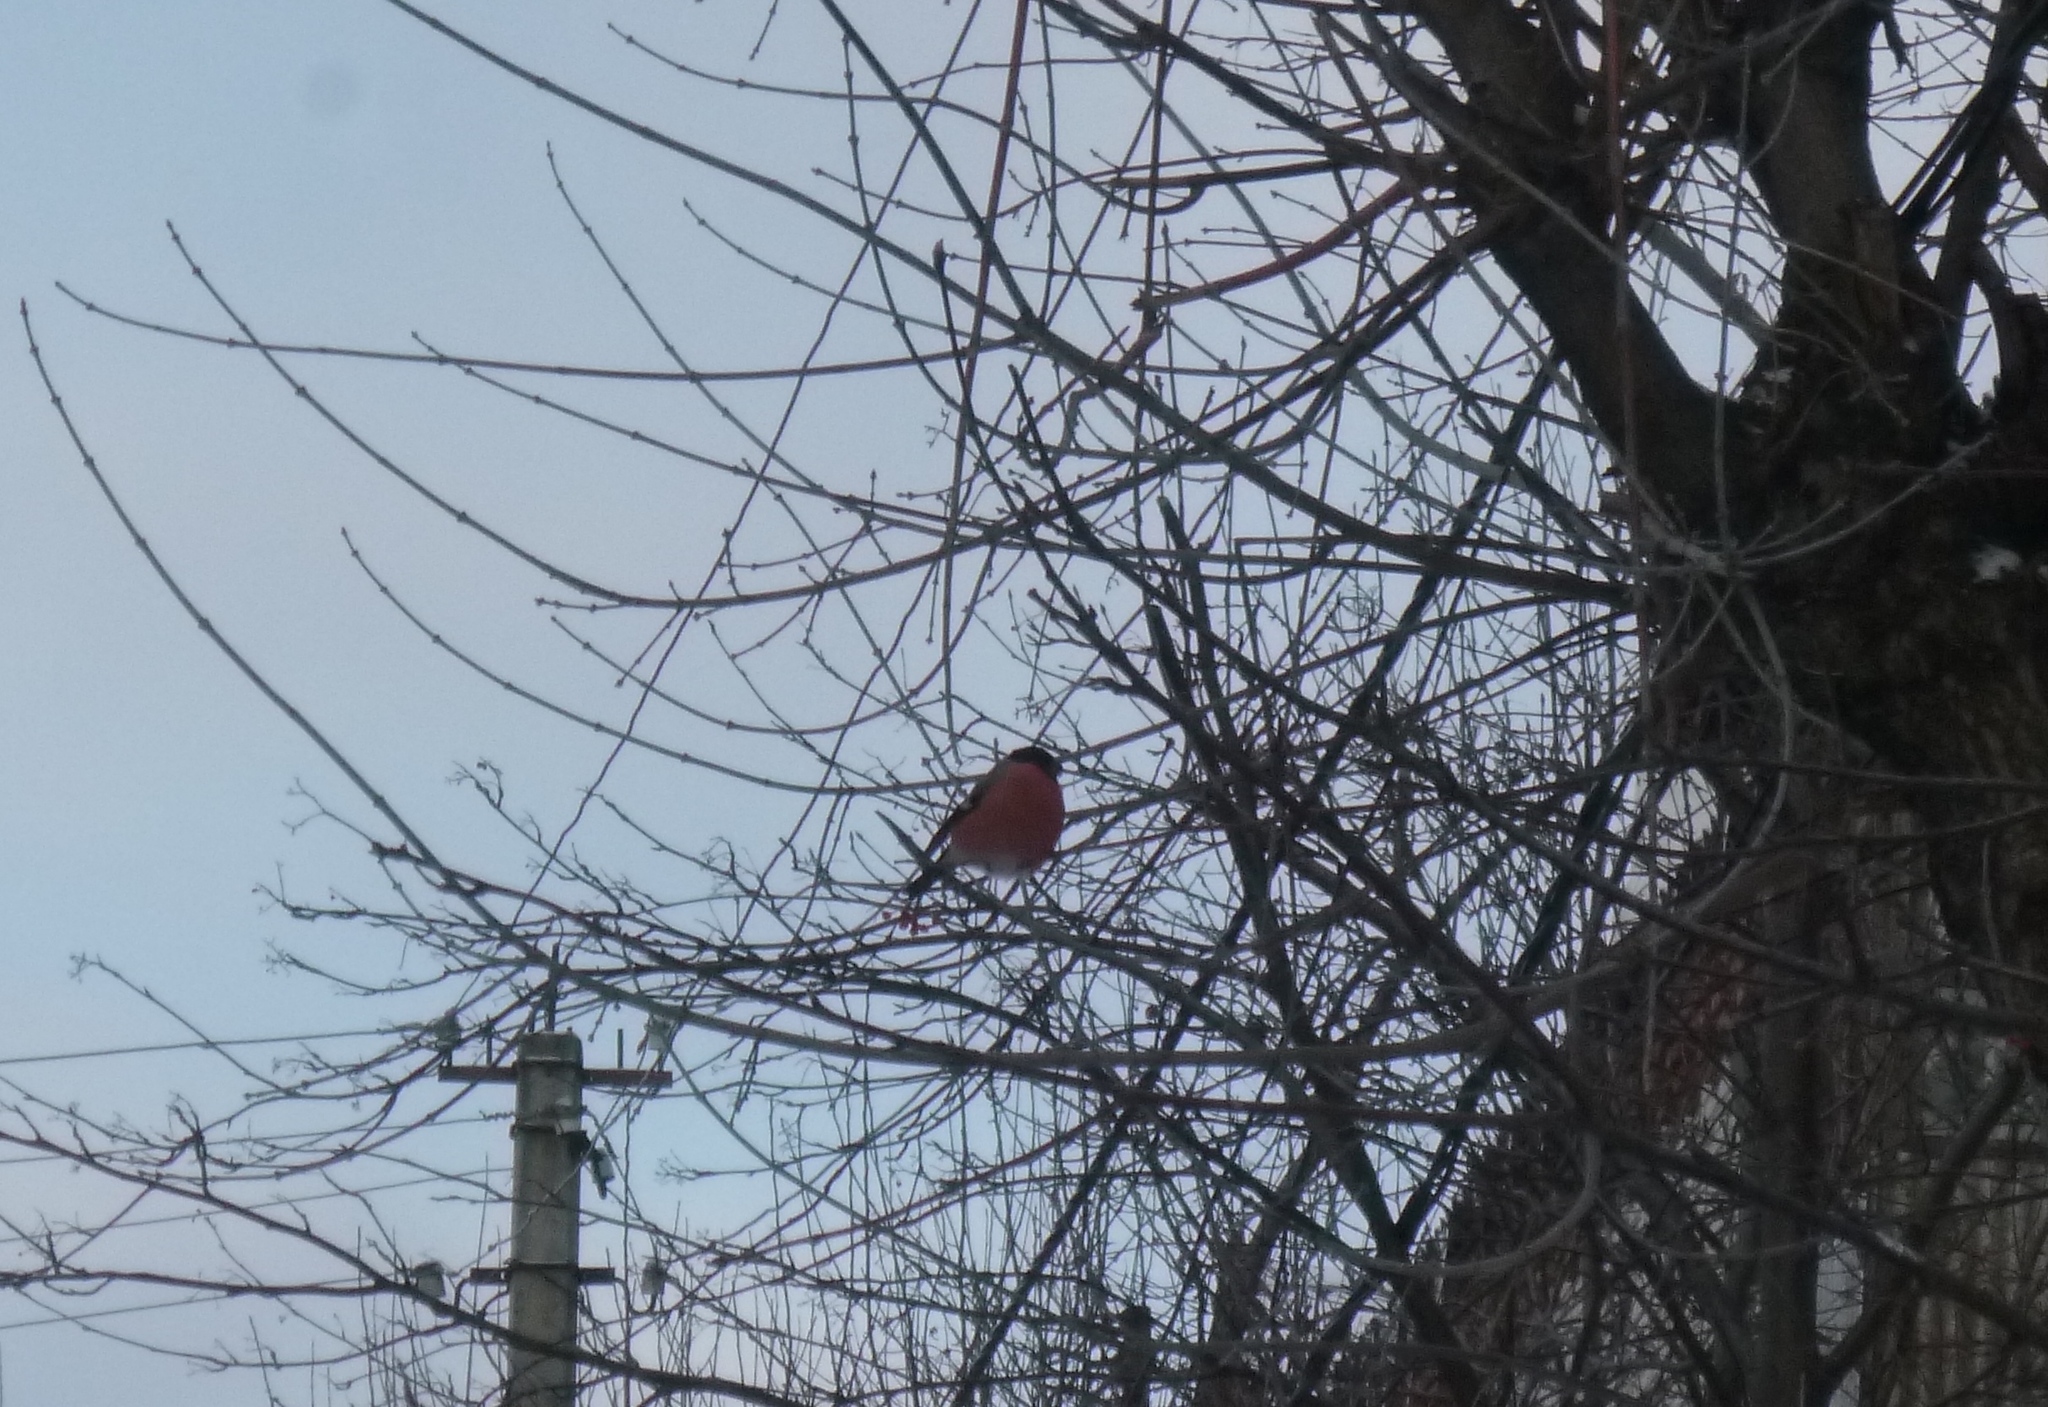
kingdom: Animalia
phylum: Chordata
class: Aves
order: Passeriformes
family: Fringillidae
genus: Pyrrhula
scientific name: Pyrrhula pyrrhula
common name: Eurasian bullfinch
